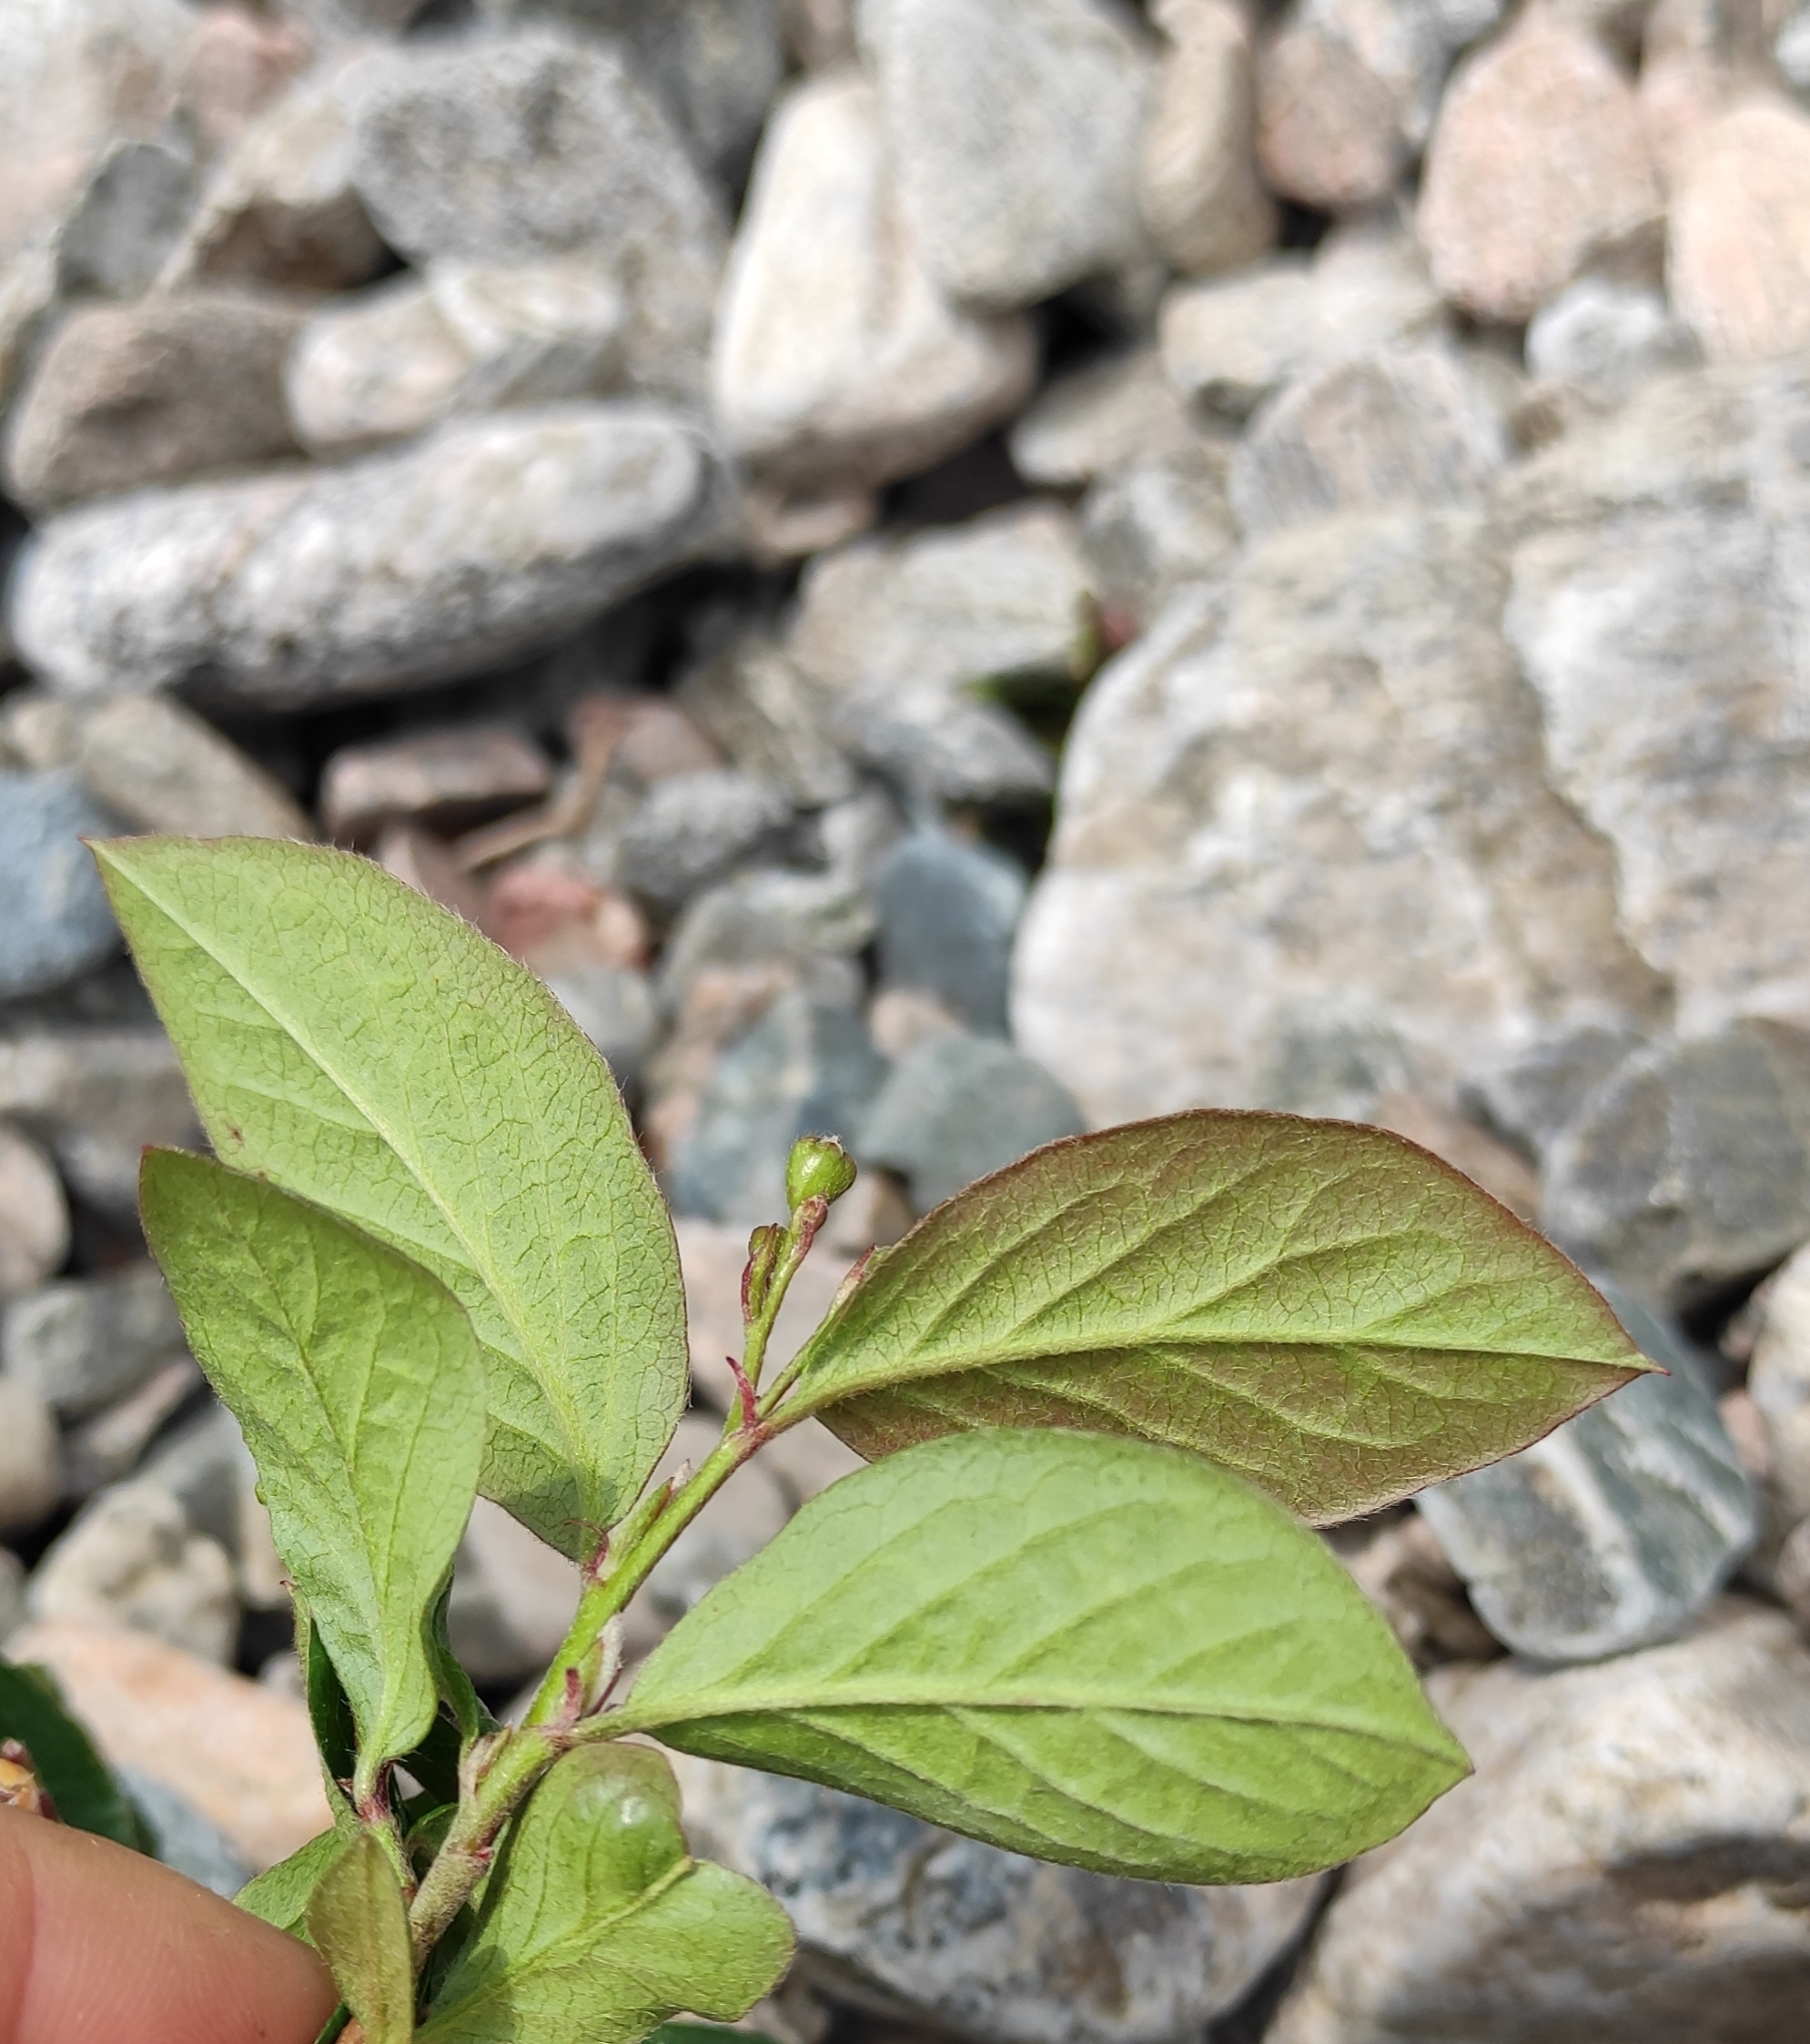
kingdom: Plantae
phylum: Tracheophyta
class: Magnoliopsida
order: Rosales
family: Rosaceae
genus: Cotoneaster
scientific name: Cotoneaster acutifolius
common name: Peking cotoneaster
